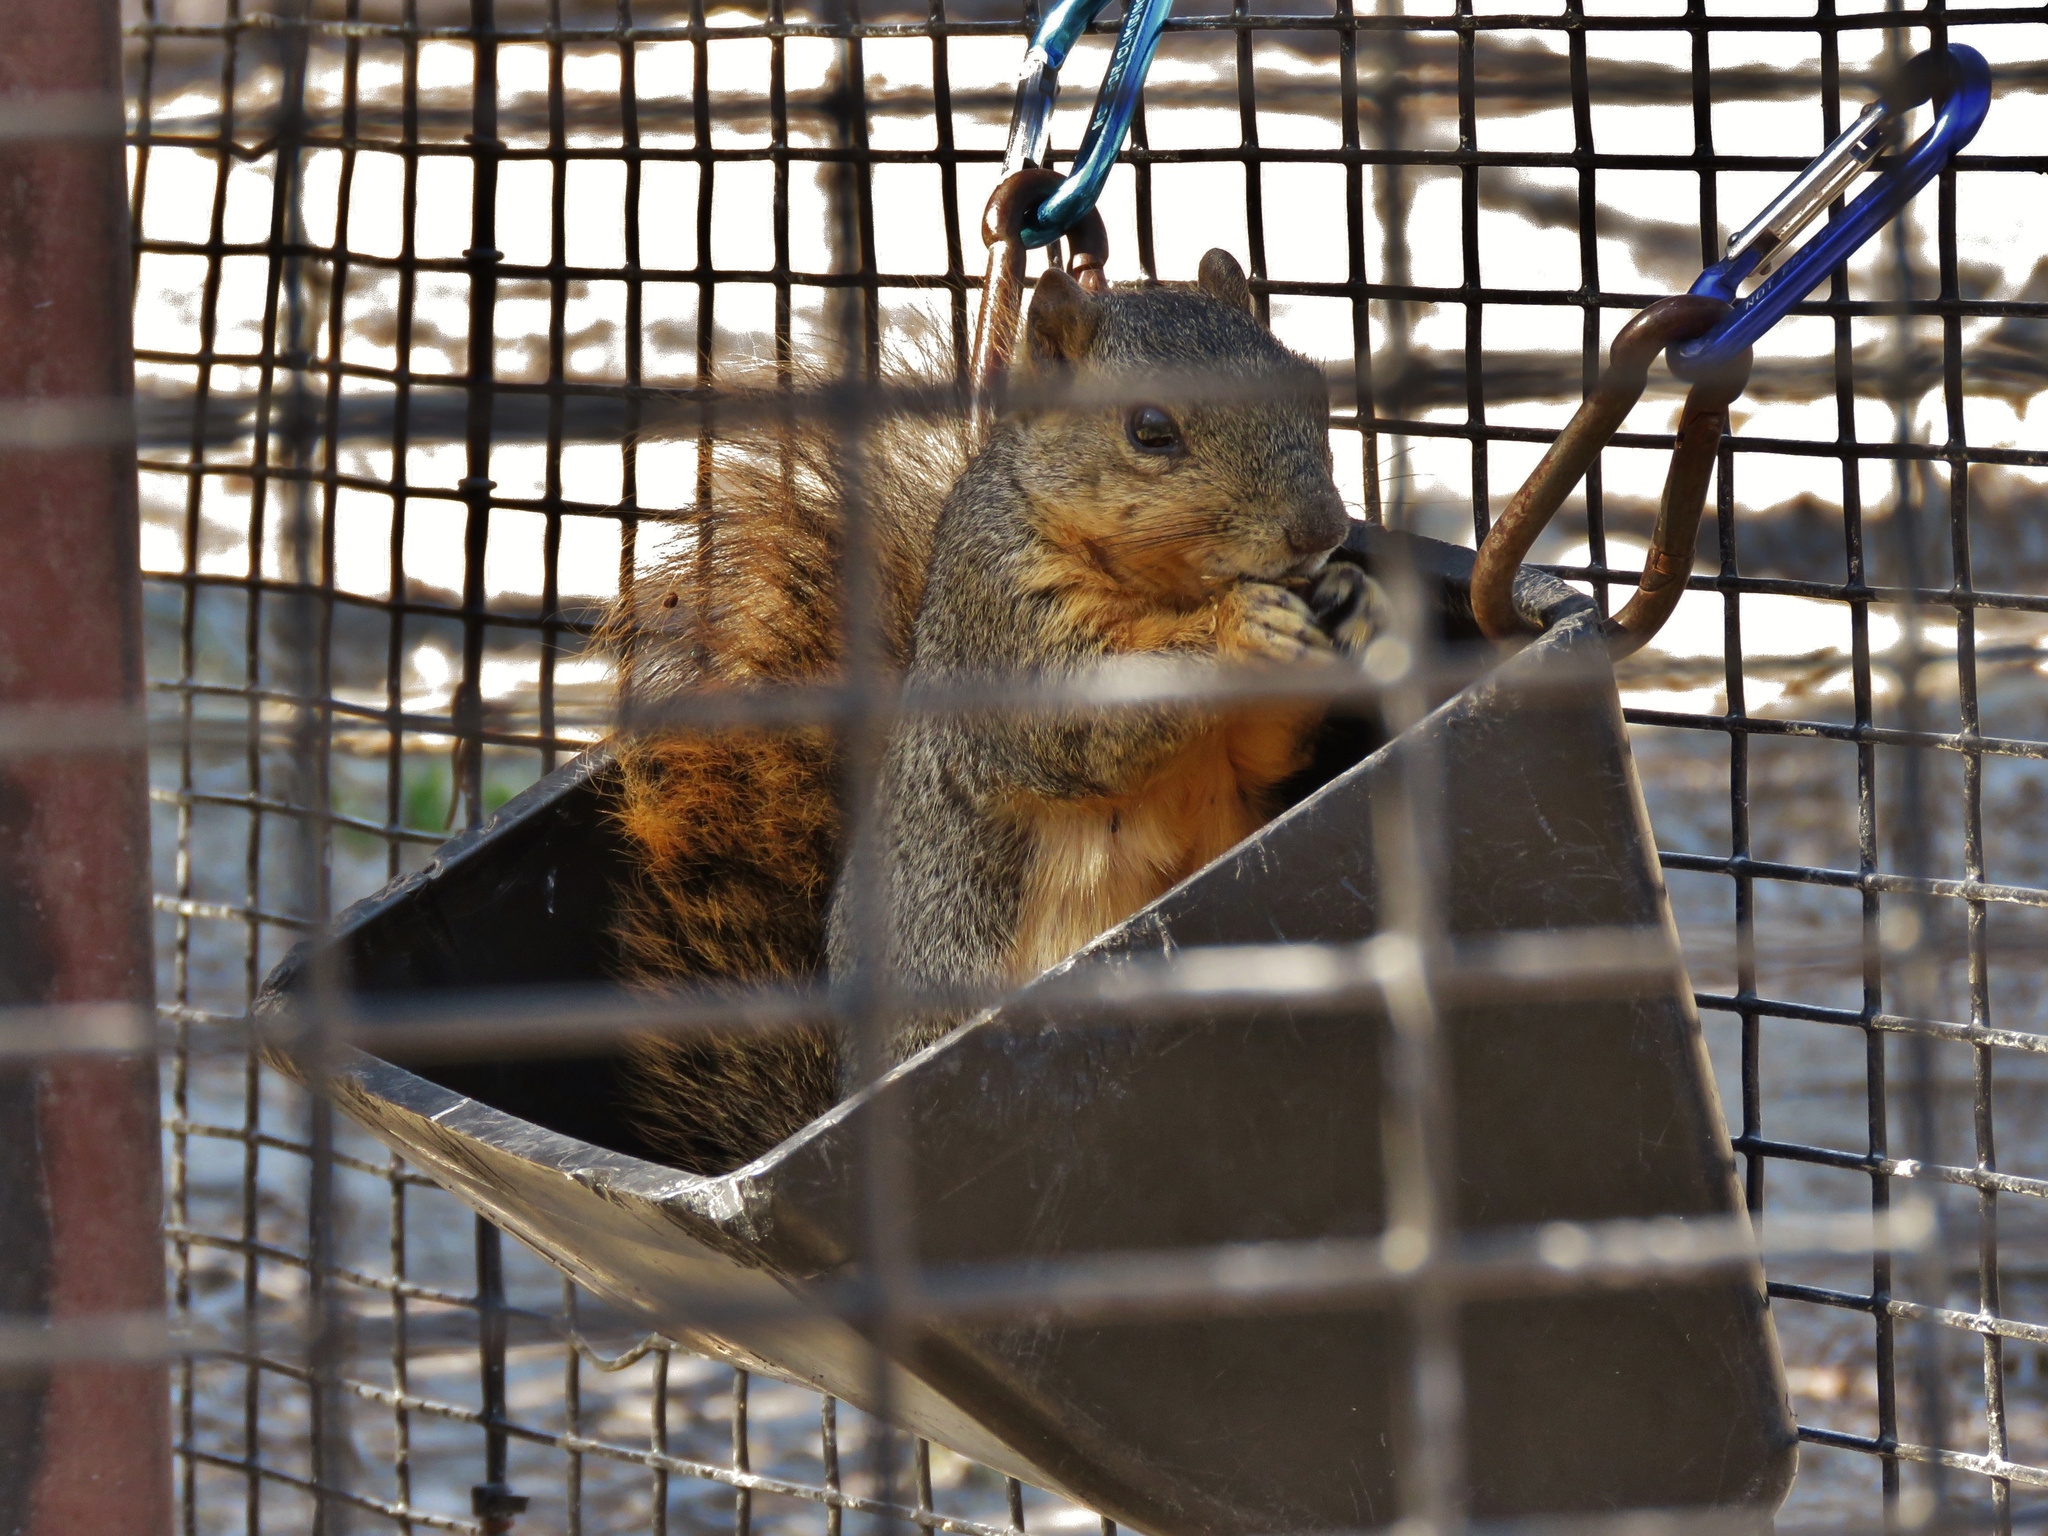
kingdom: Animalia
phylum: Chordata
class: Mammalia
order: Rodentia
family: Sciuridae
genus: Sciurus
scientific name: Sciurus niger
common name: Fox squirrel
